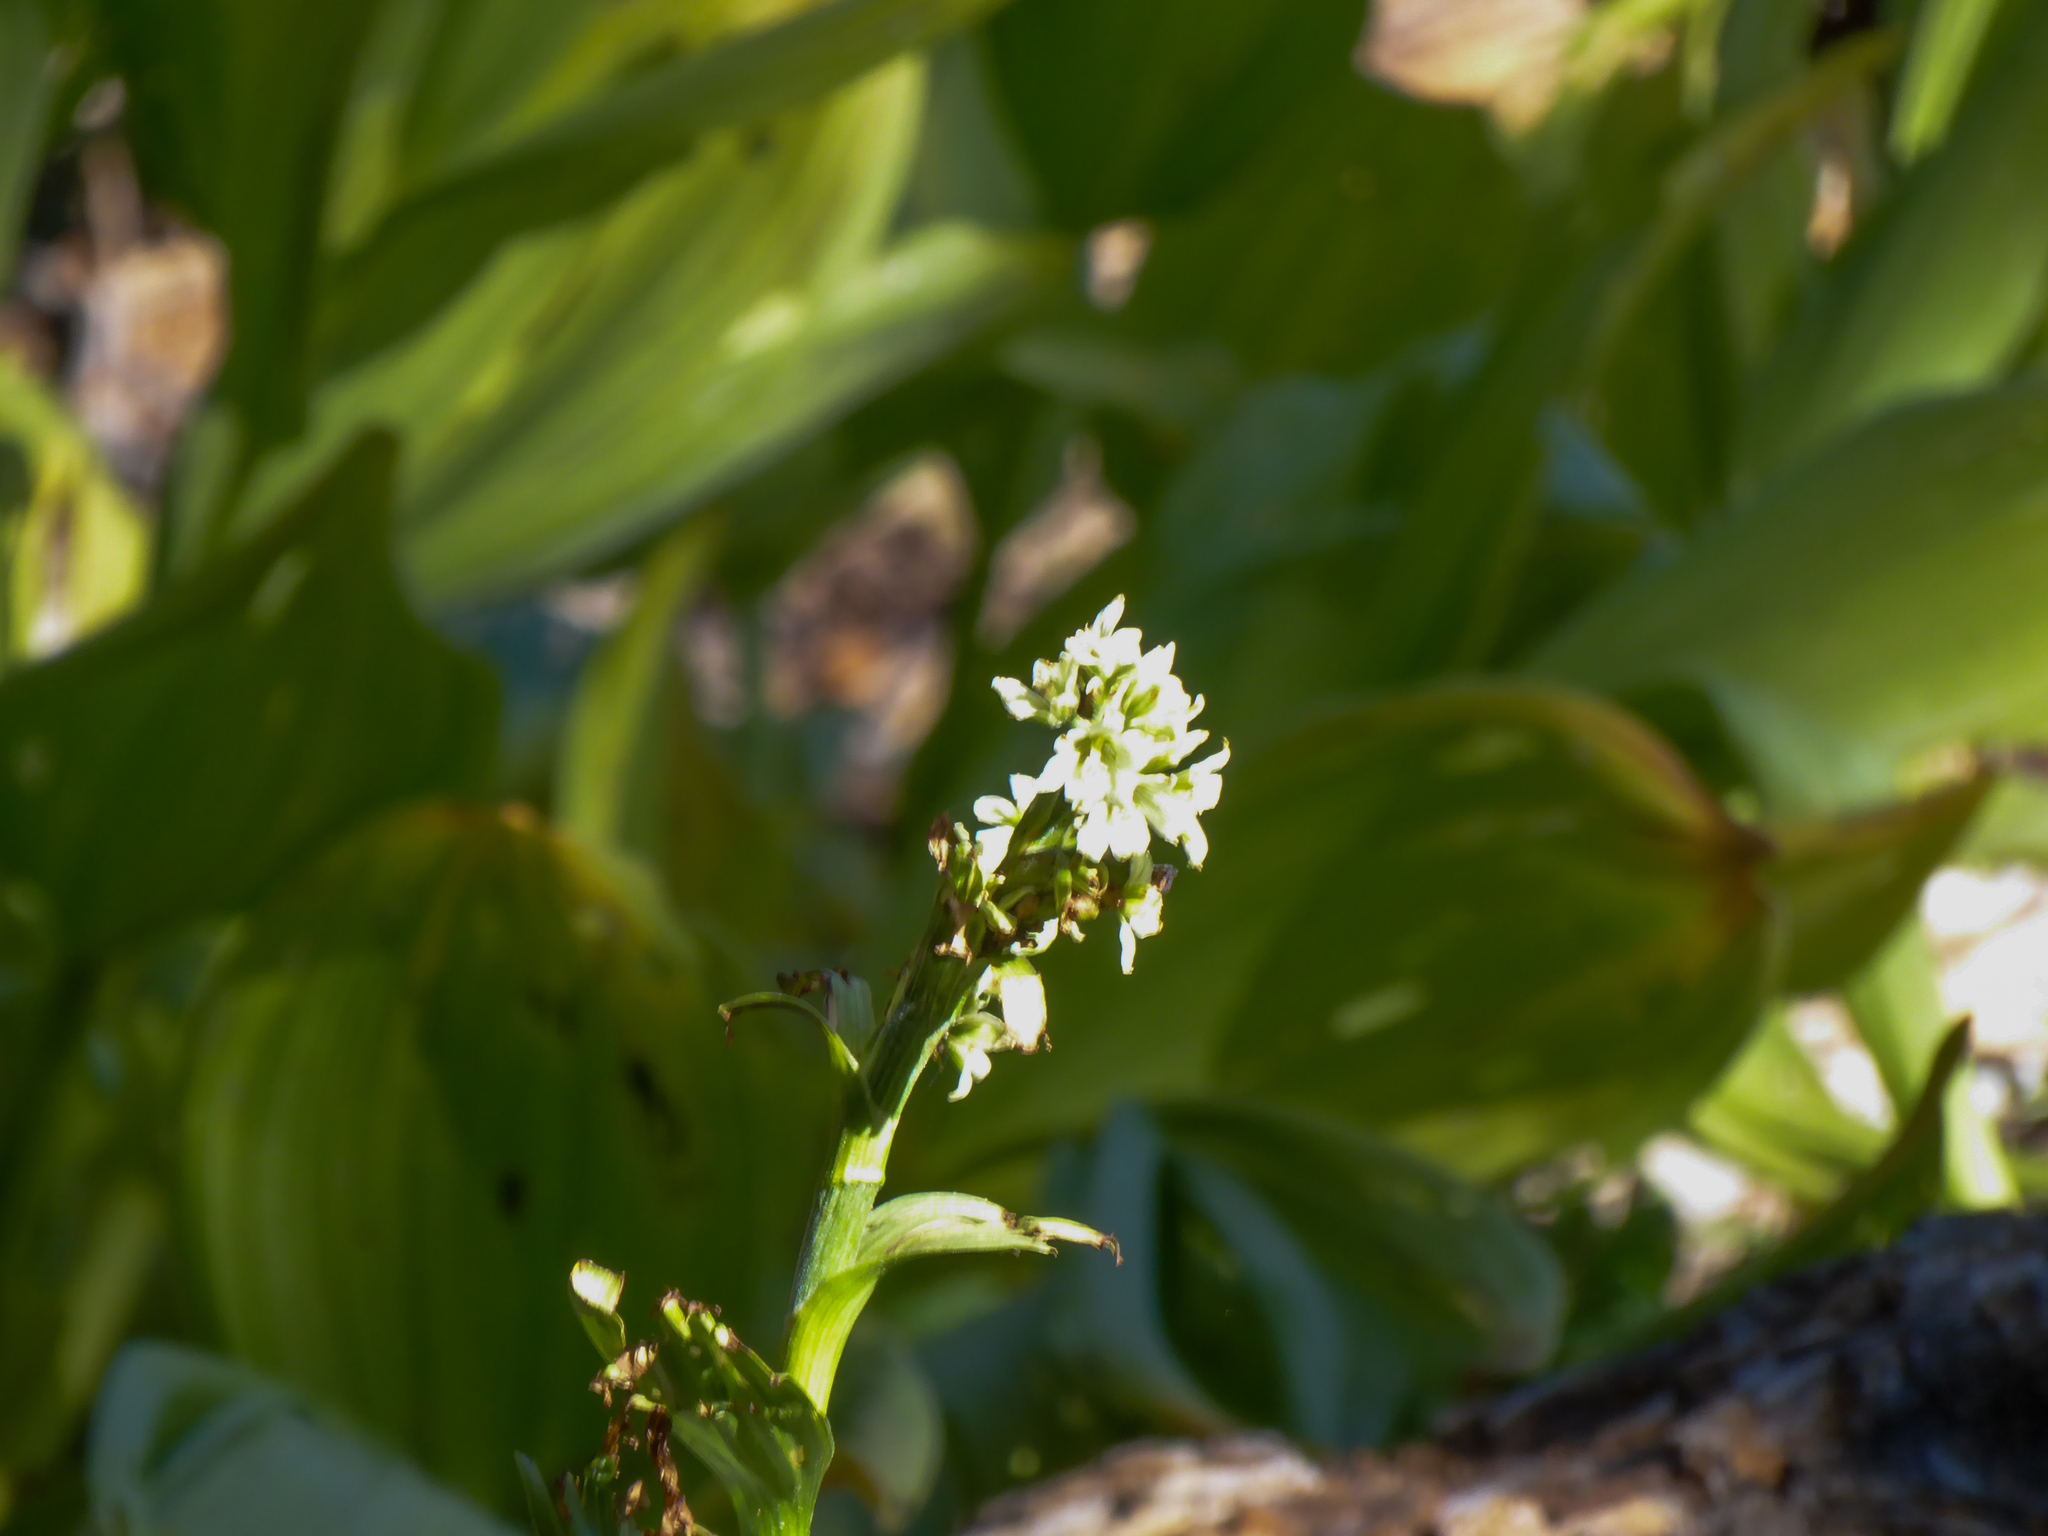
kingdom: Plantae
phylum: Tracheophyta
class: Liliopsida
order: Liliales
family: Melanthiaceae
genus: Veratrum
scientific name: Veratrum californicum
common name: California veratrum
